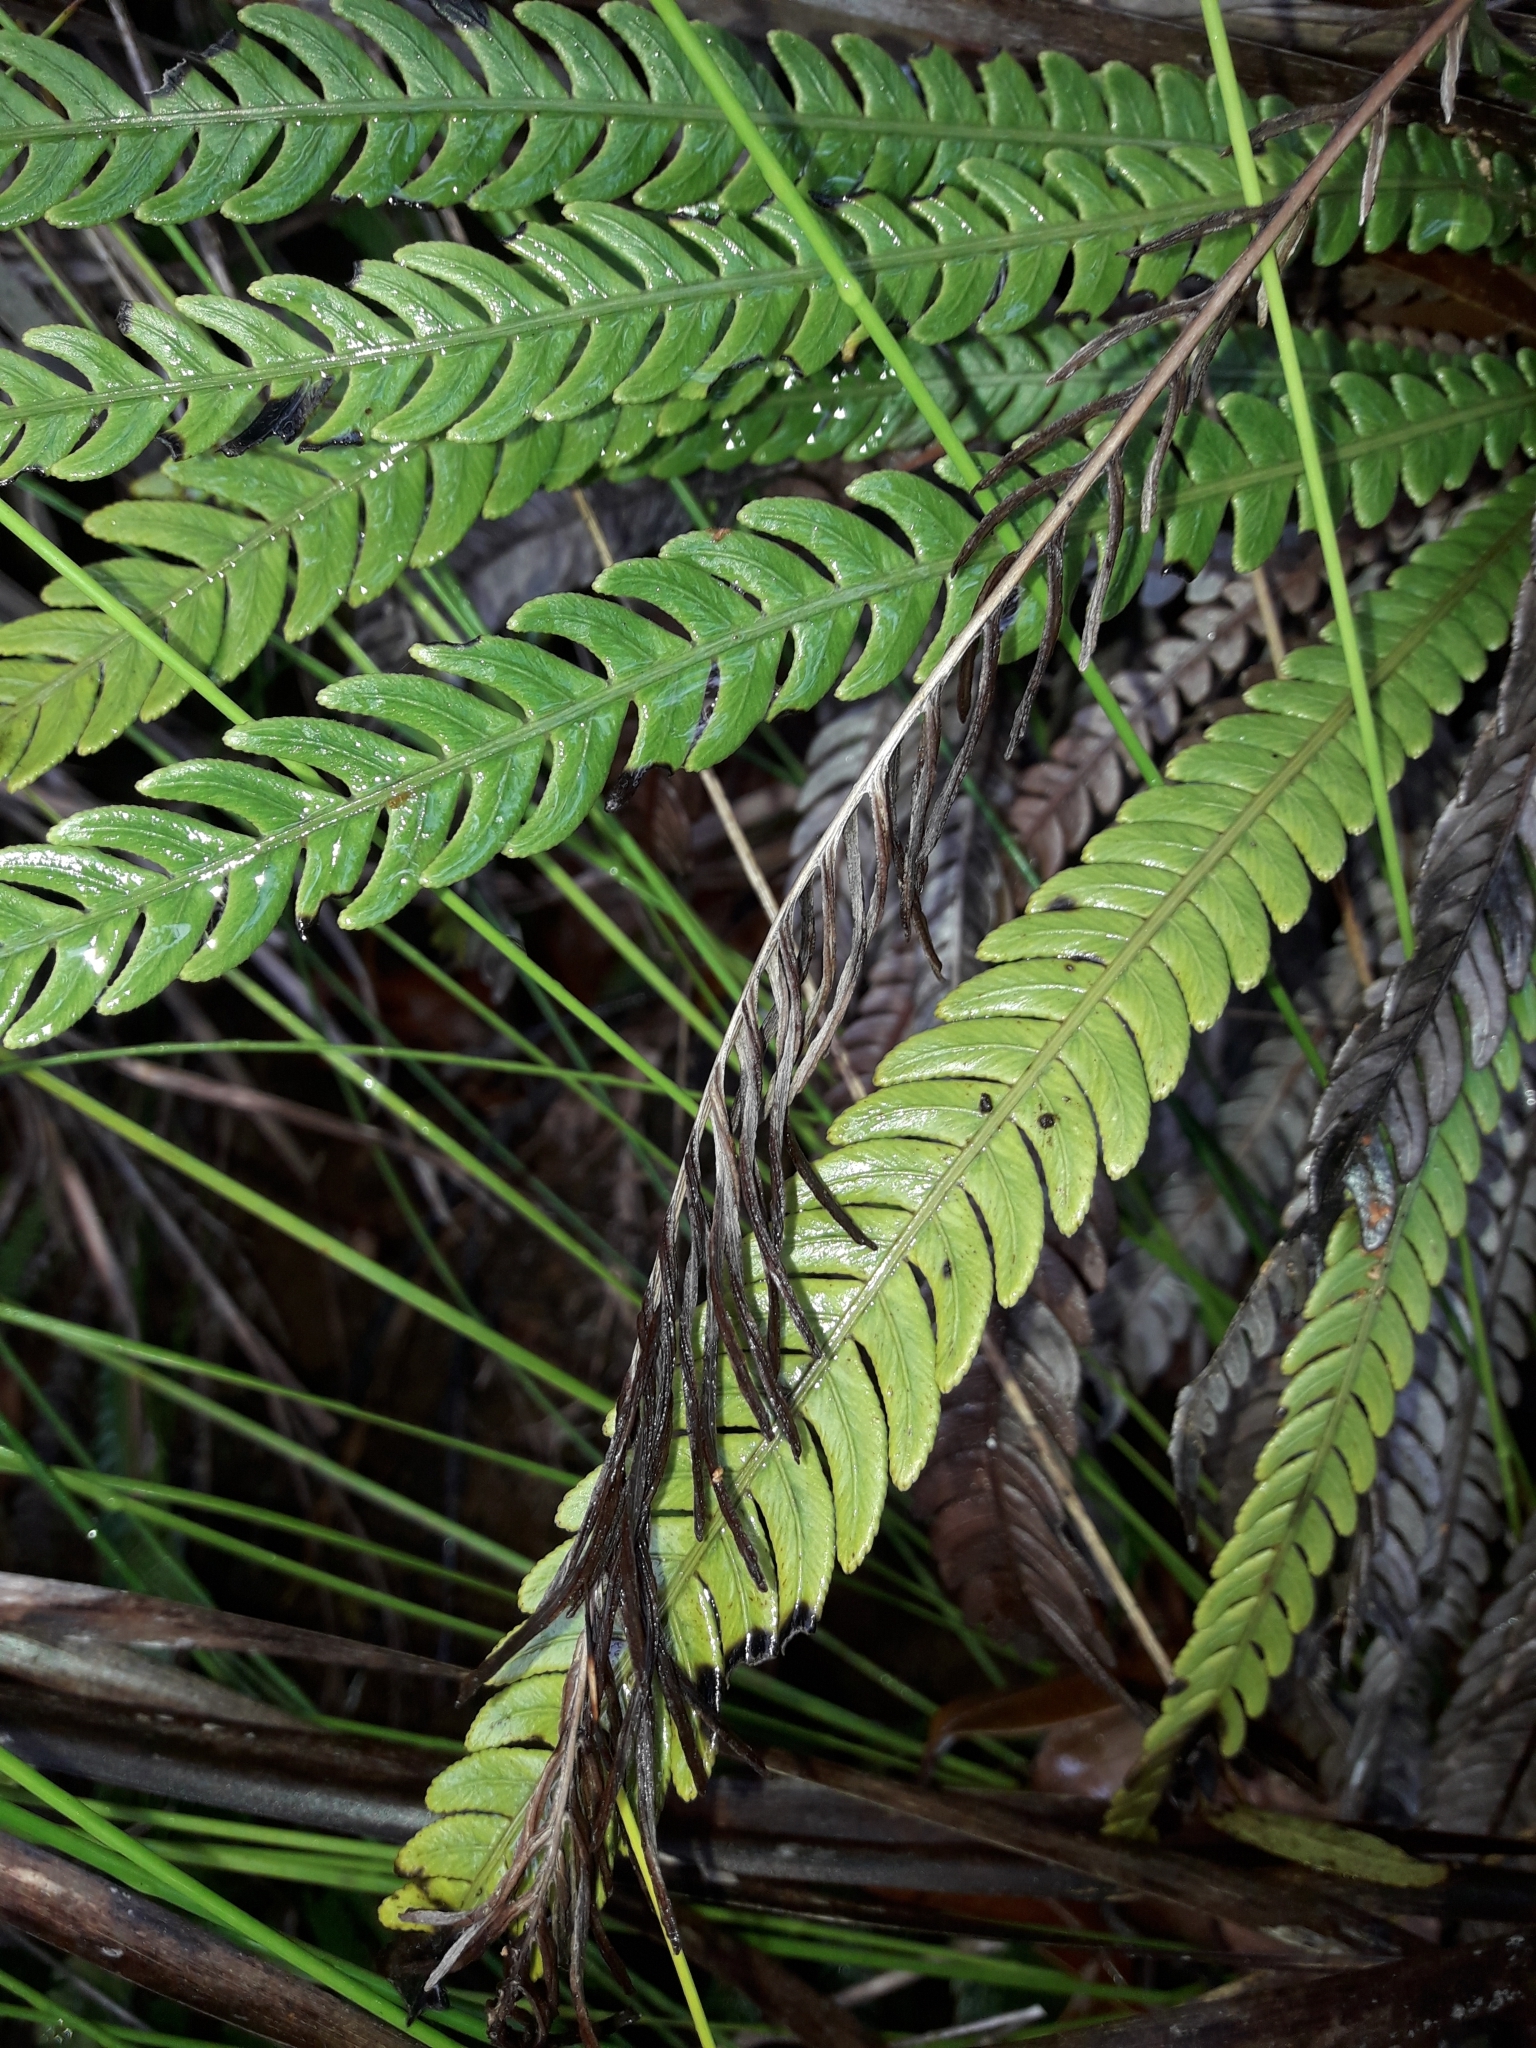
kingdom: Plantae
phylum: Tracheophyta
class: Polypodiopsida
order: Polypodiales
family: Blechnaceae
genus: Oceaniopteris
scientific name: Oceaniopteris obtusata
